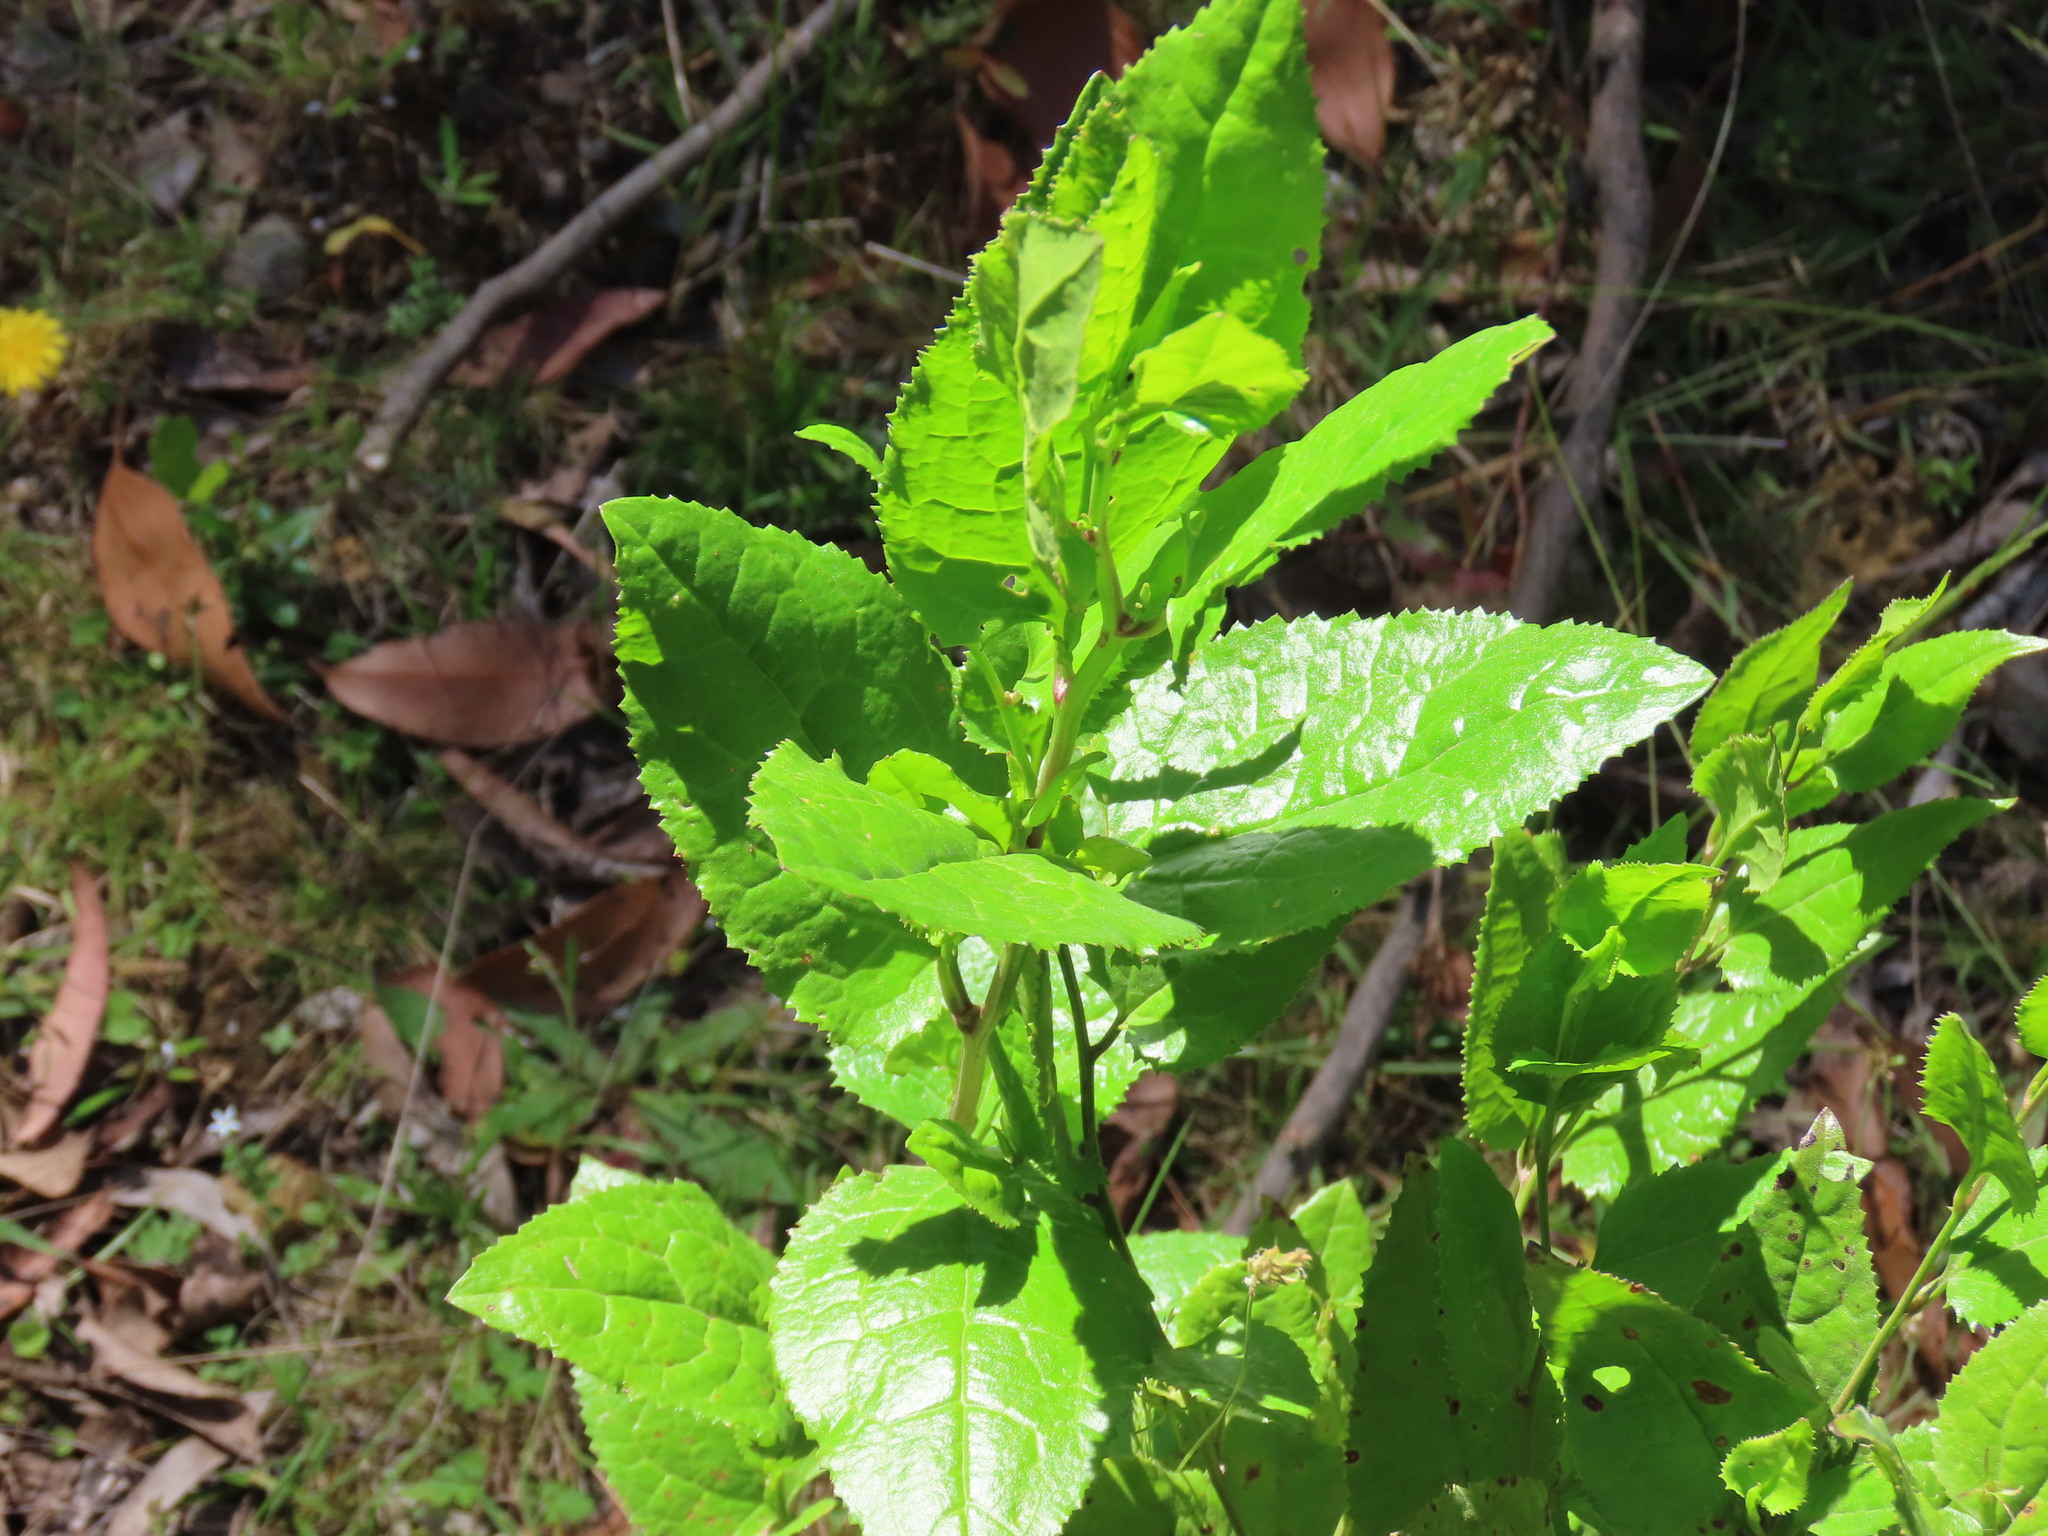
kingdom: Plantae
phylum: Tracheophyta
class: Magnoliopsida
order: Asterales
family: Goodeniaceae
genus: Goodenia
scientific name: Goodenia ovata
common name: Hop goodenia
